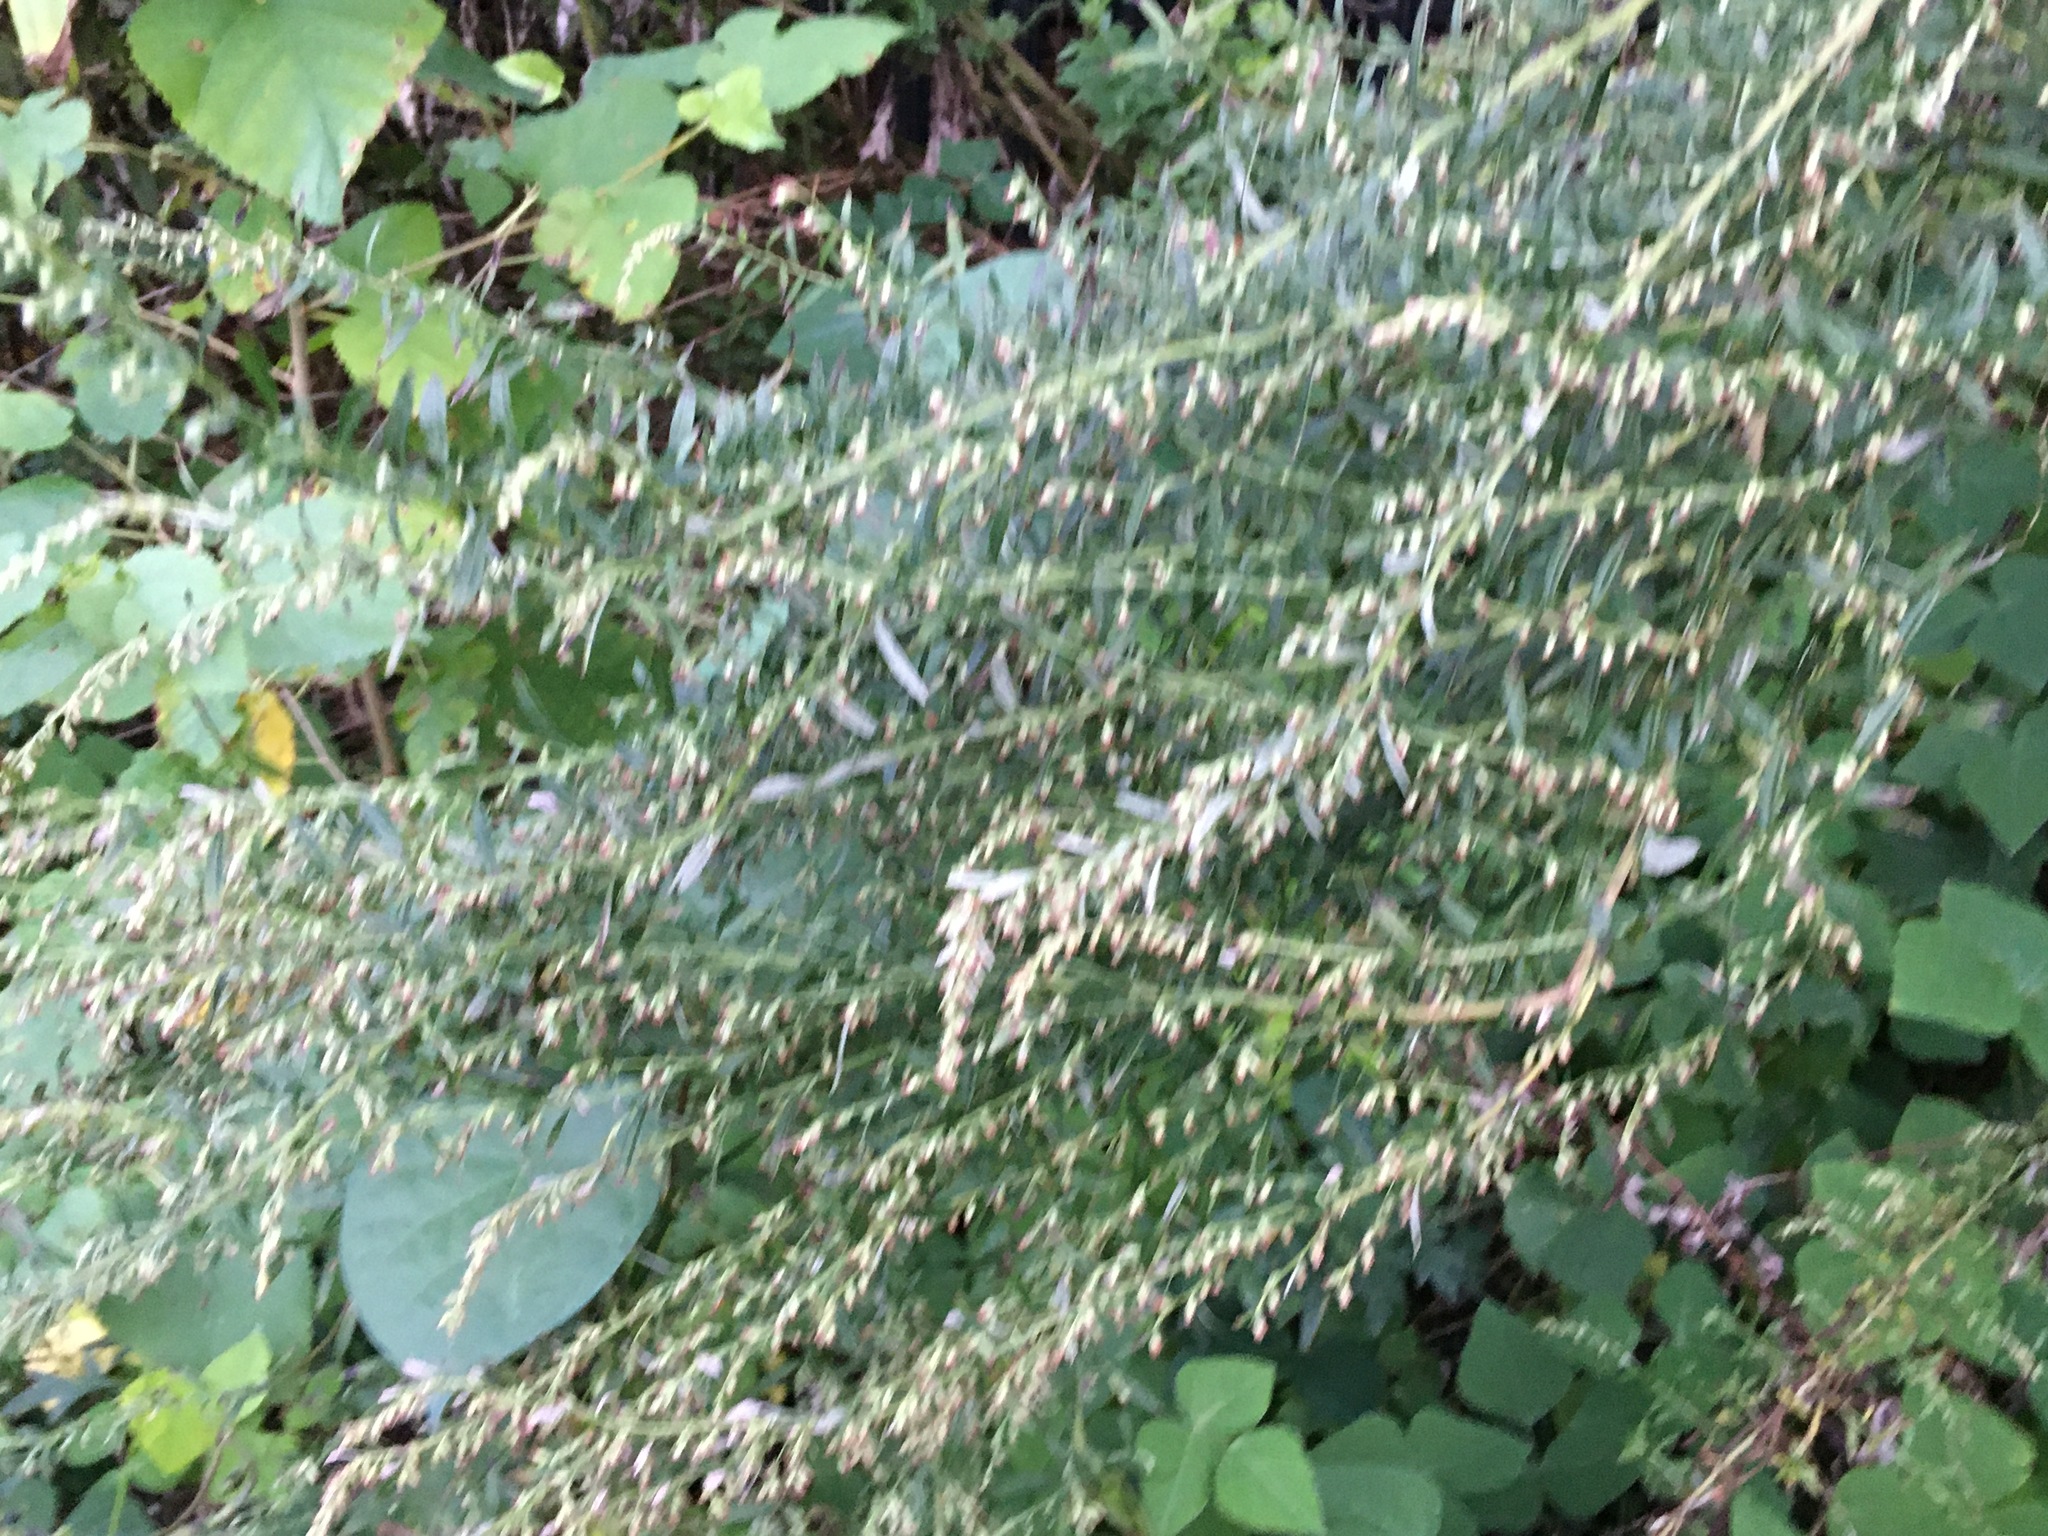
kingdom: Plantae
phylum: Tracheophyta
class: Magnoliopsida
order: Asterales
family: Asteraceae
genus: Artemisia
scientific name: Artemisia vulgaris
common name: Mugwort
